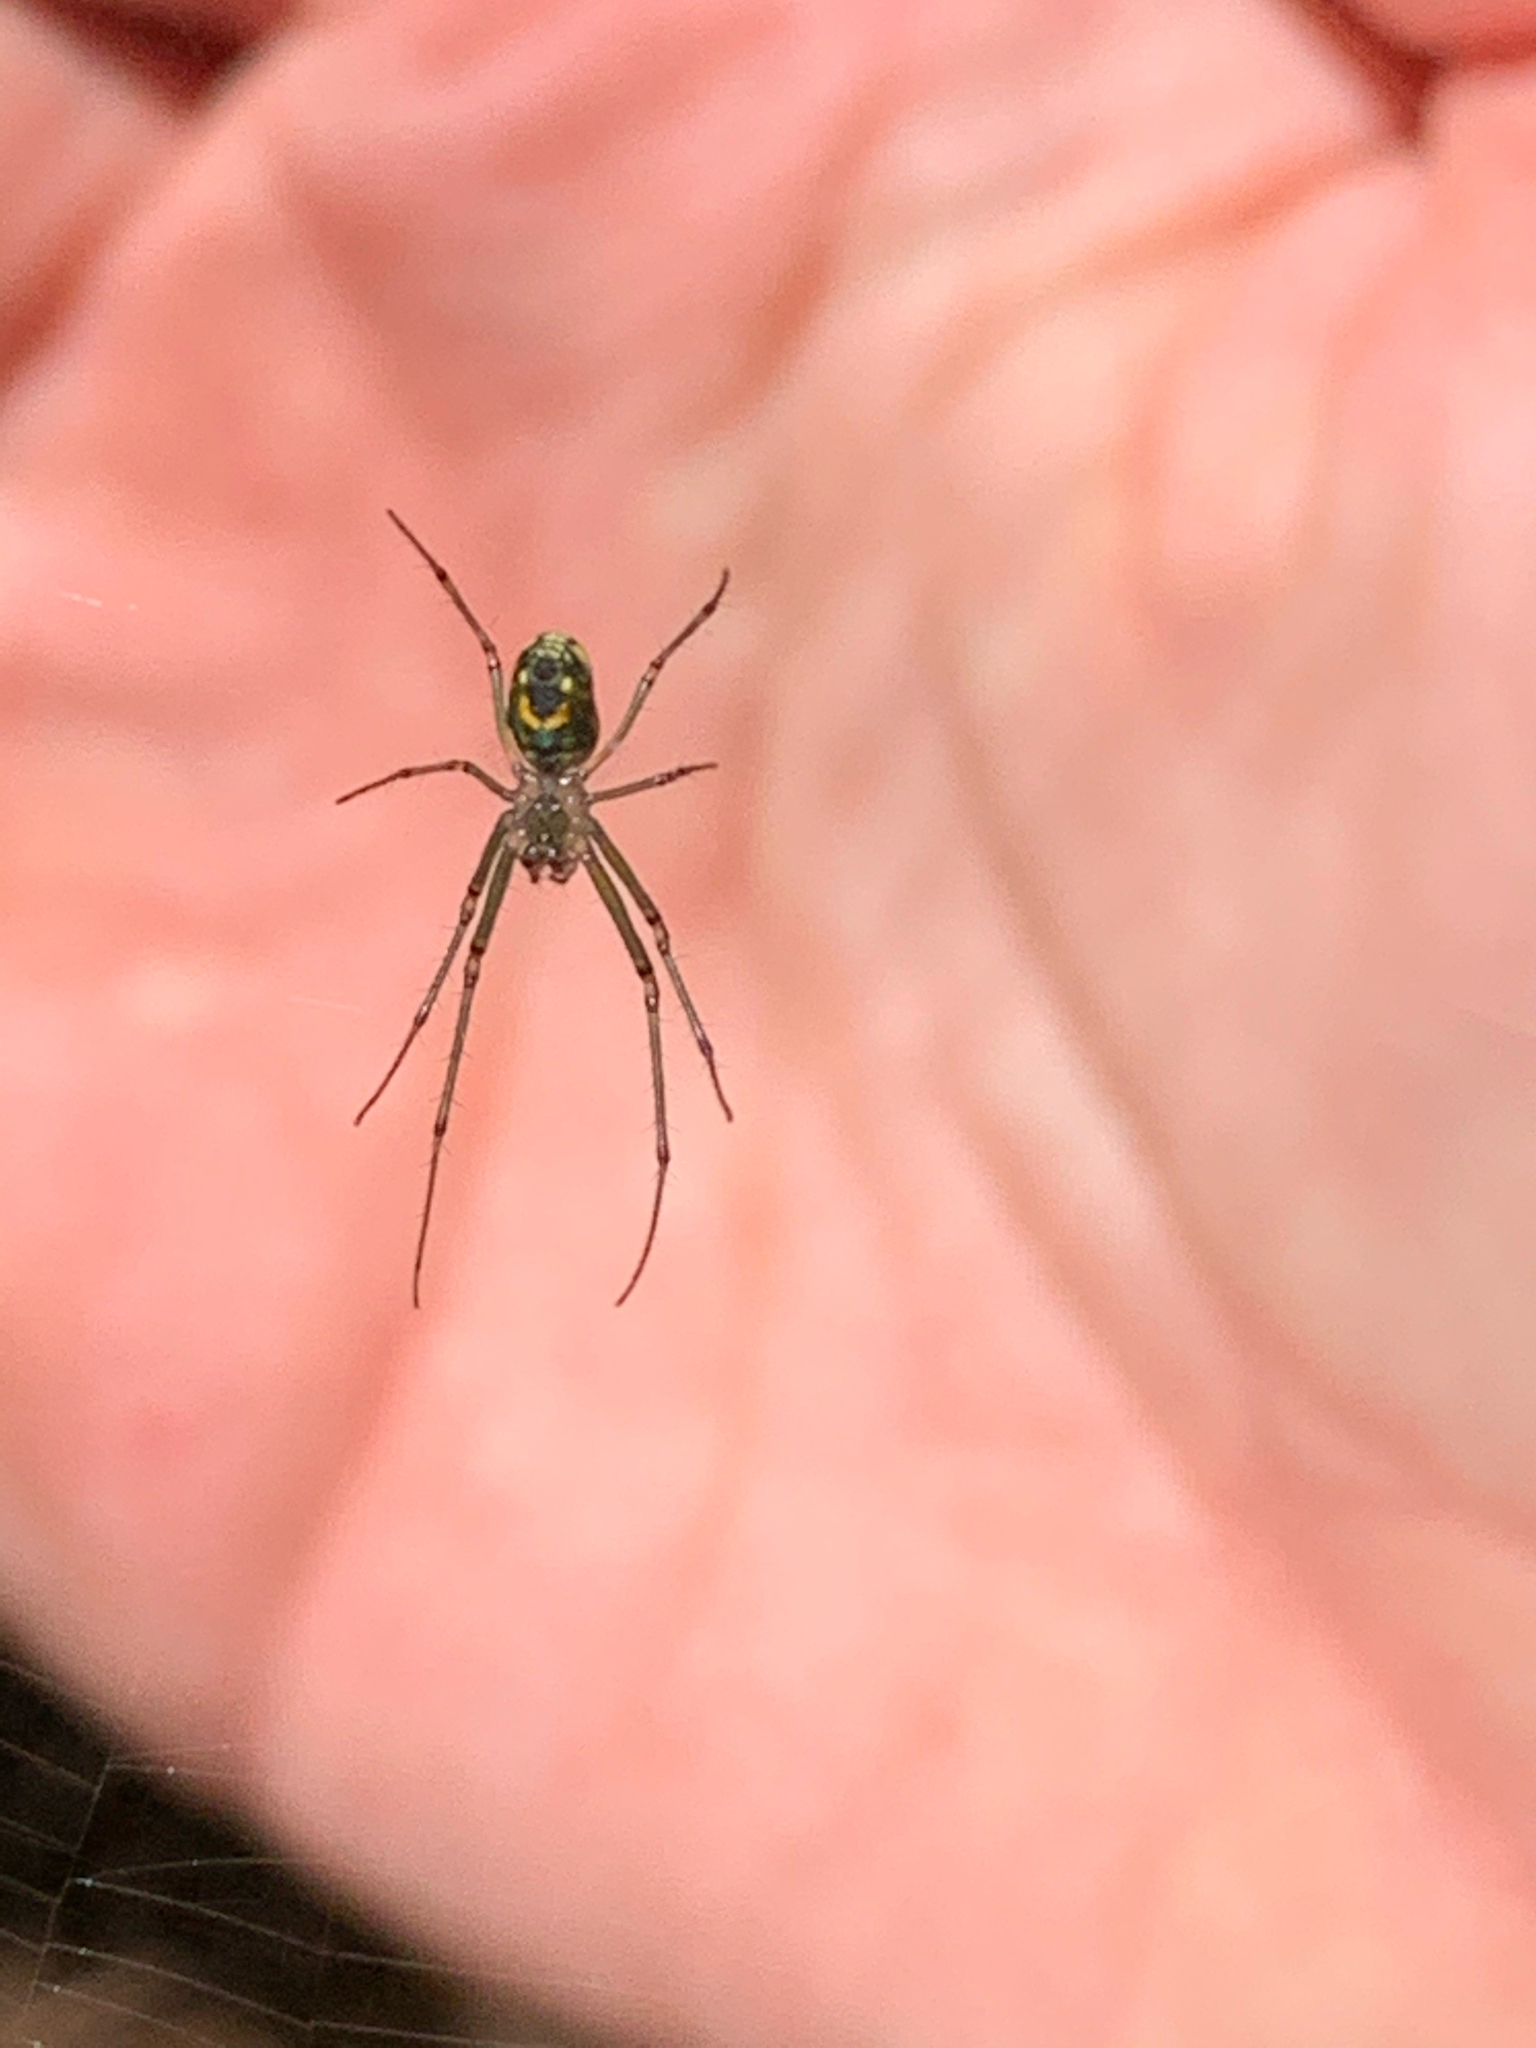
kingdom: Animalia
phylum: Arthropoda
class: Arachnida
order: Araneae
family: Tetragnathidae
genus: Leucauge
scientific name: Leucauge venusta
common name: Longjawed orb weavers
